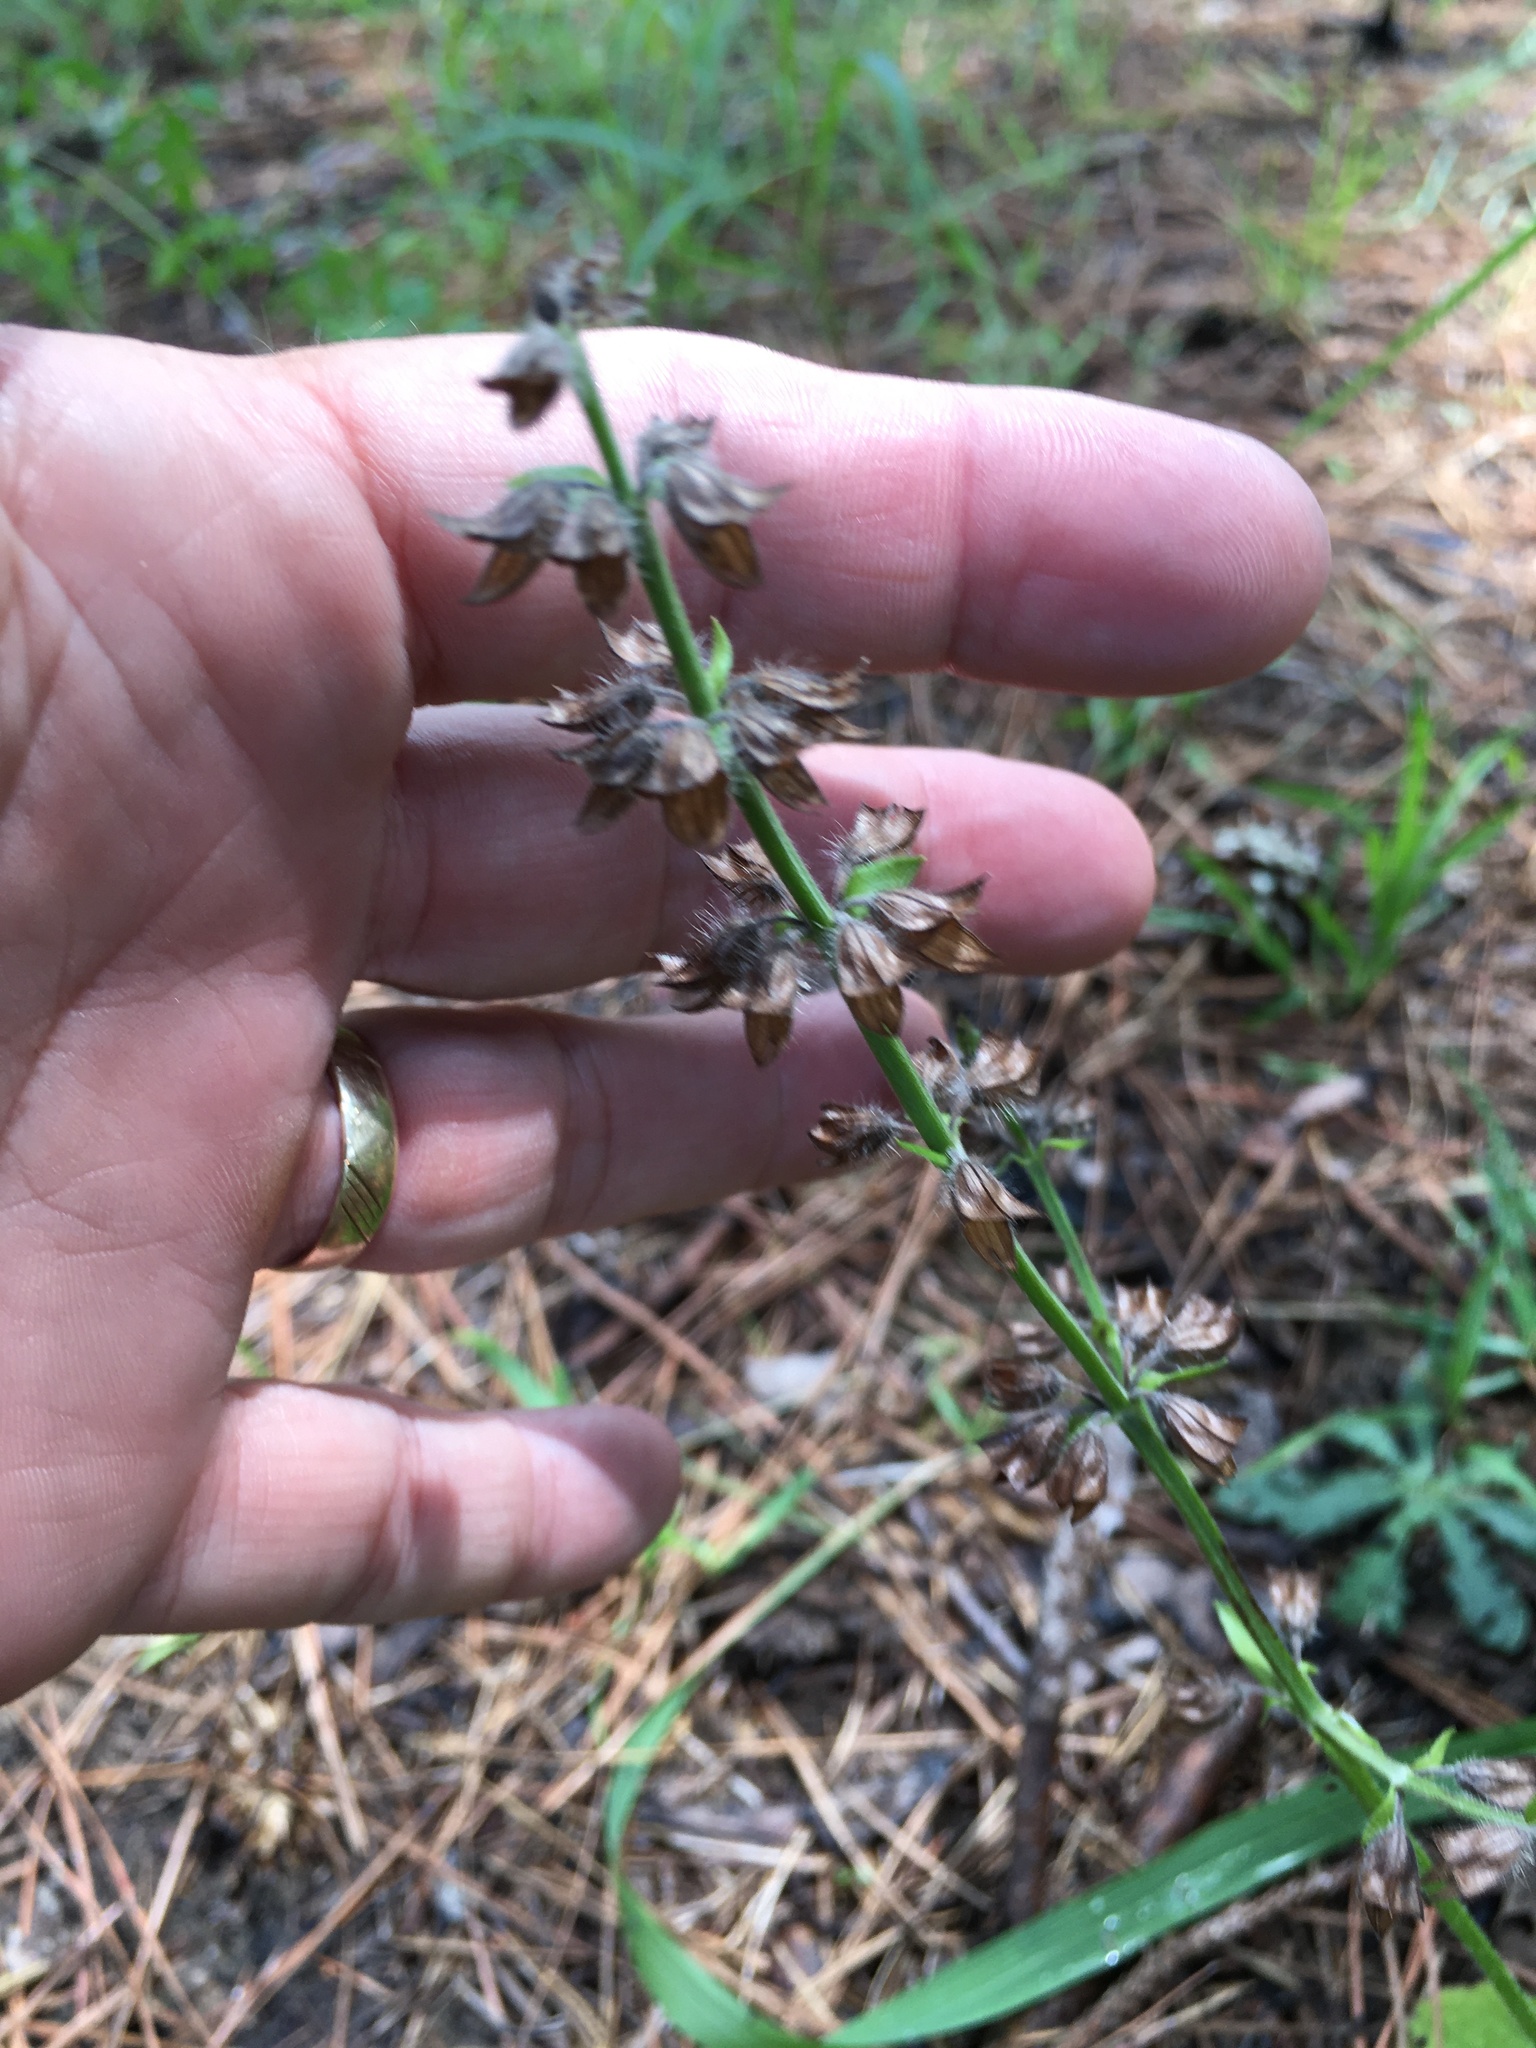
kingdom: Plantae
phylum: Tracheophyta
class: Magnoliopsida
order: Lamiales
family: Lamiaceae
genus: Salvia
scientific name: Salvia lyrata
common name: Cancerweed
